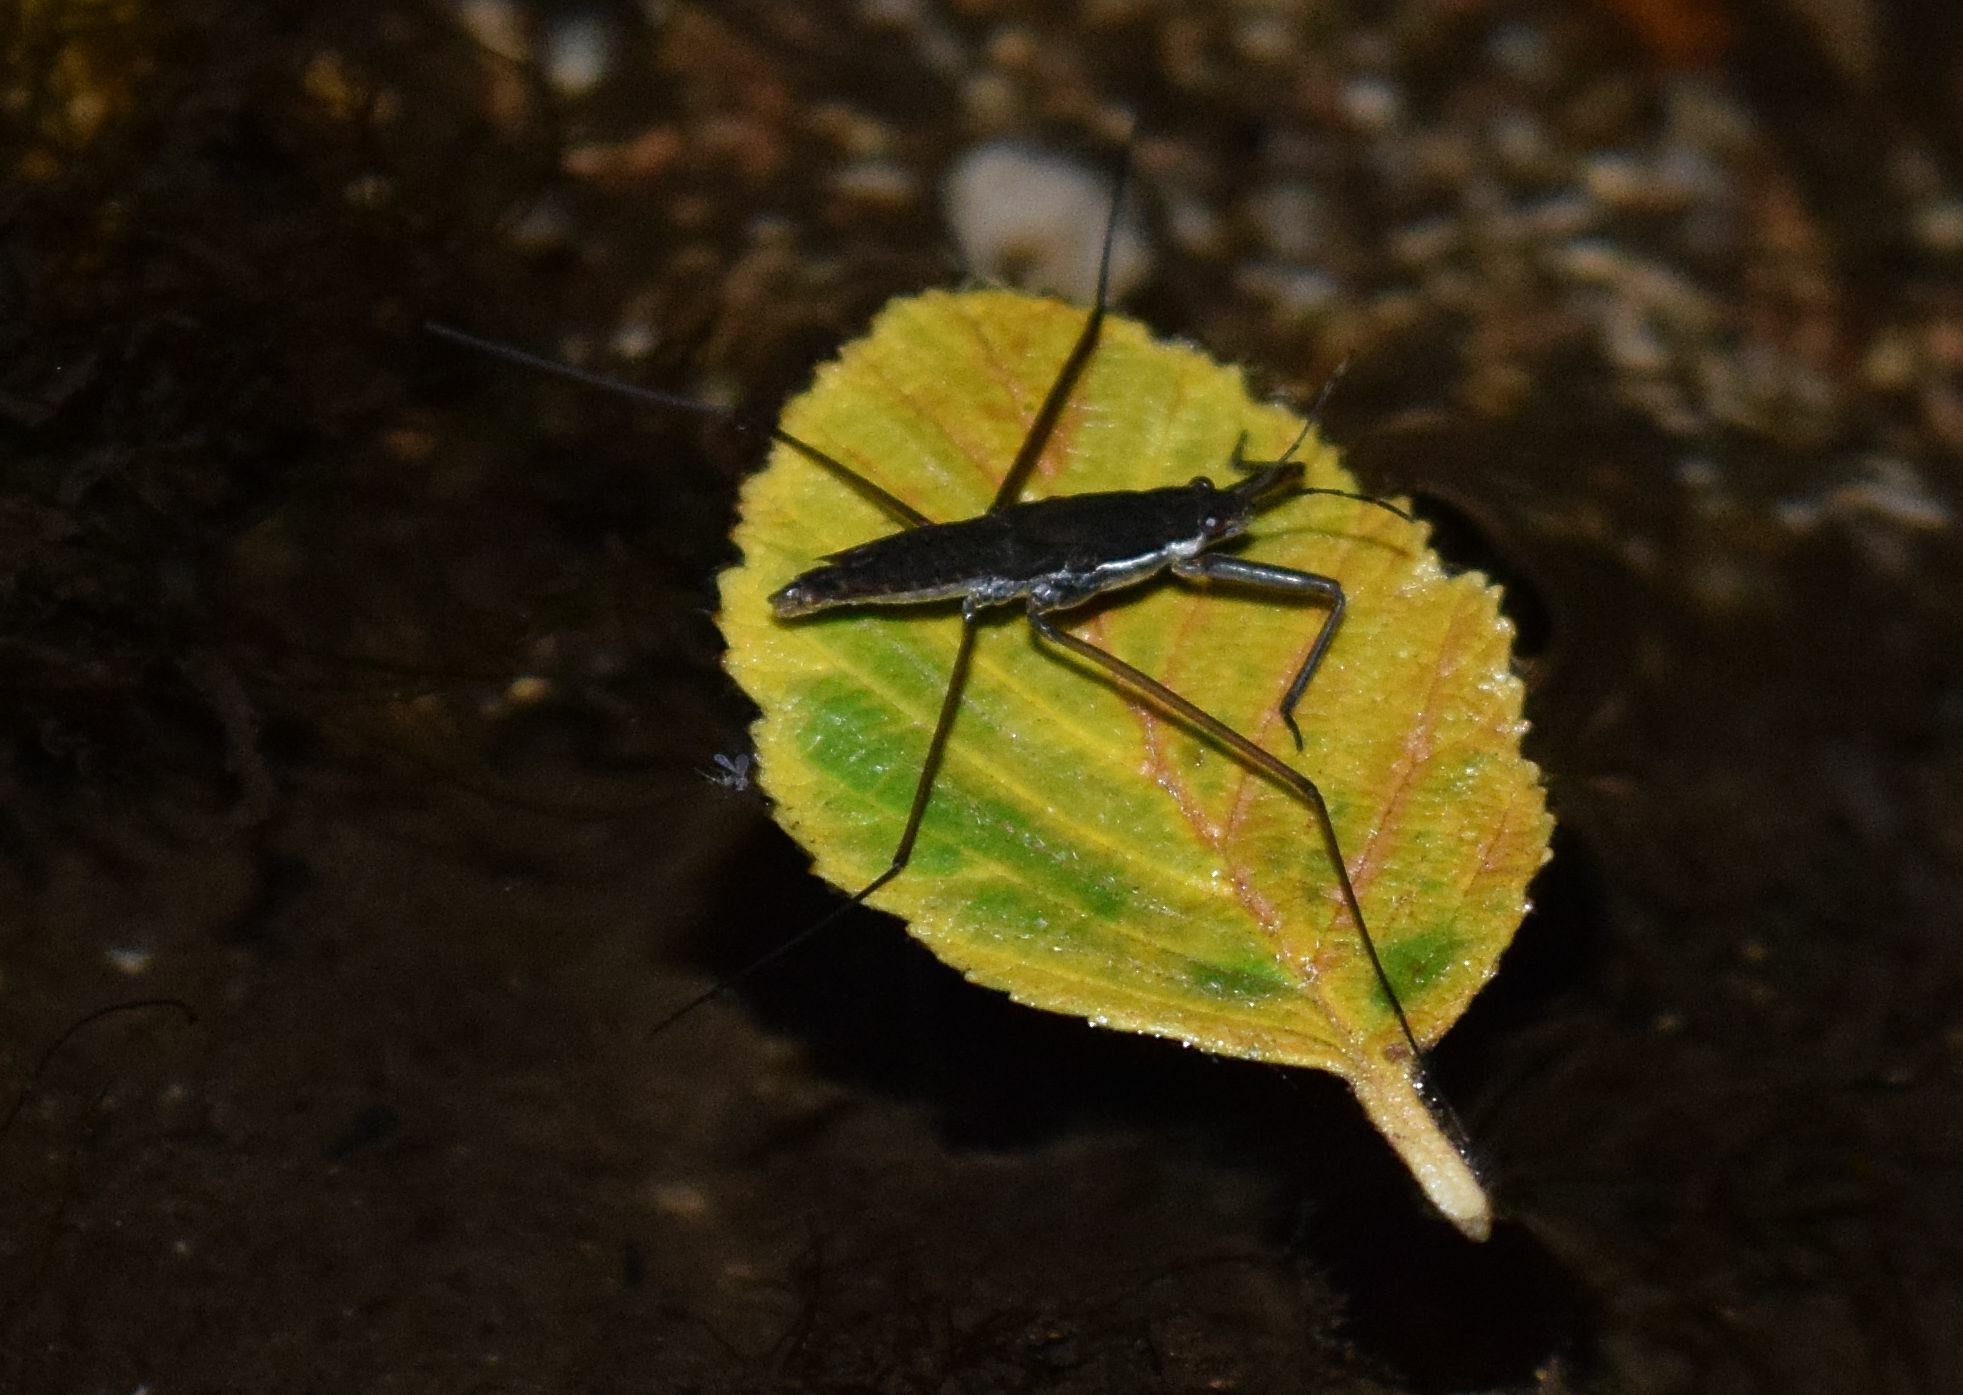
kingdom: Animalia
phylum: Arthropoda
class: Insecta
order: Hemiptera
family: Gerridae
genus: Aquarius
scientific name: Aquarius remigis
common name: Common water strider
